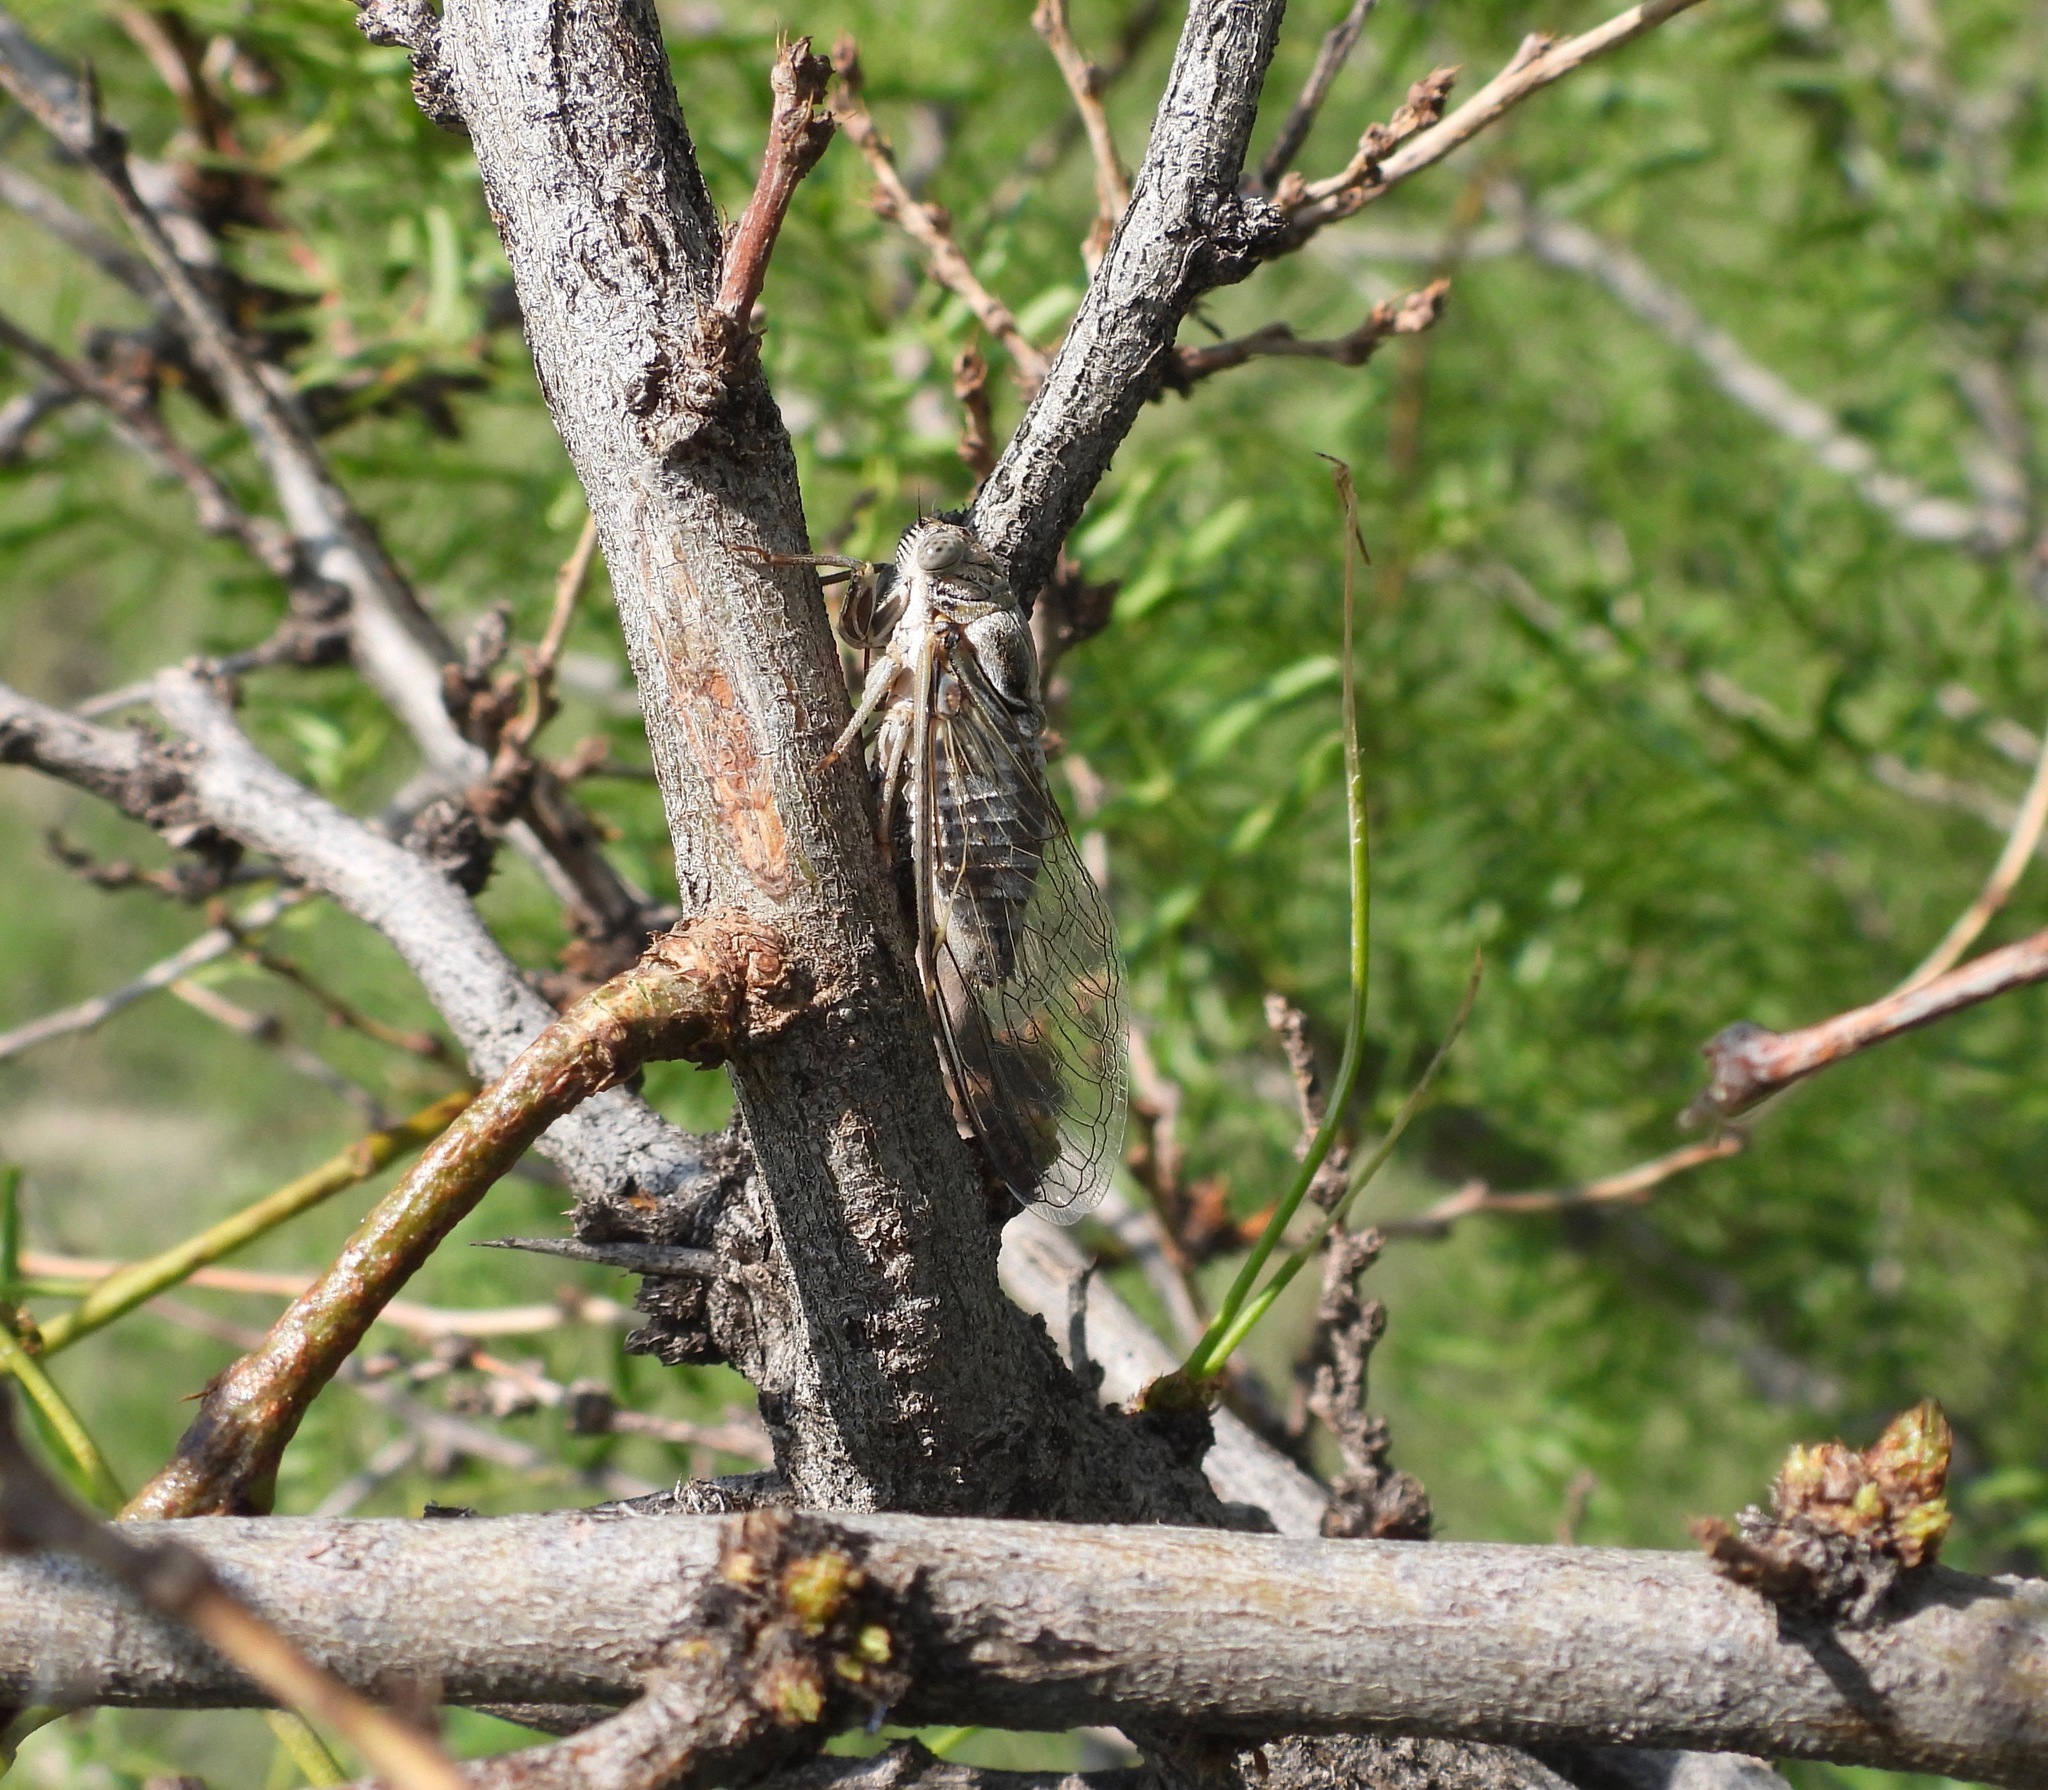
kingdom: Animalia
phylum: Arthropoda
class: Insecta
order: Hemiptera
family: Cicadidae
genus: Diceroprocta
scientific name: Diceroprocta eugraphica
